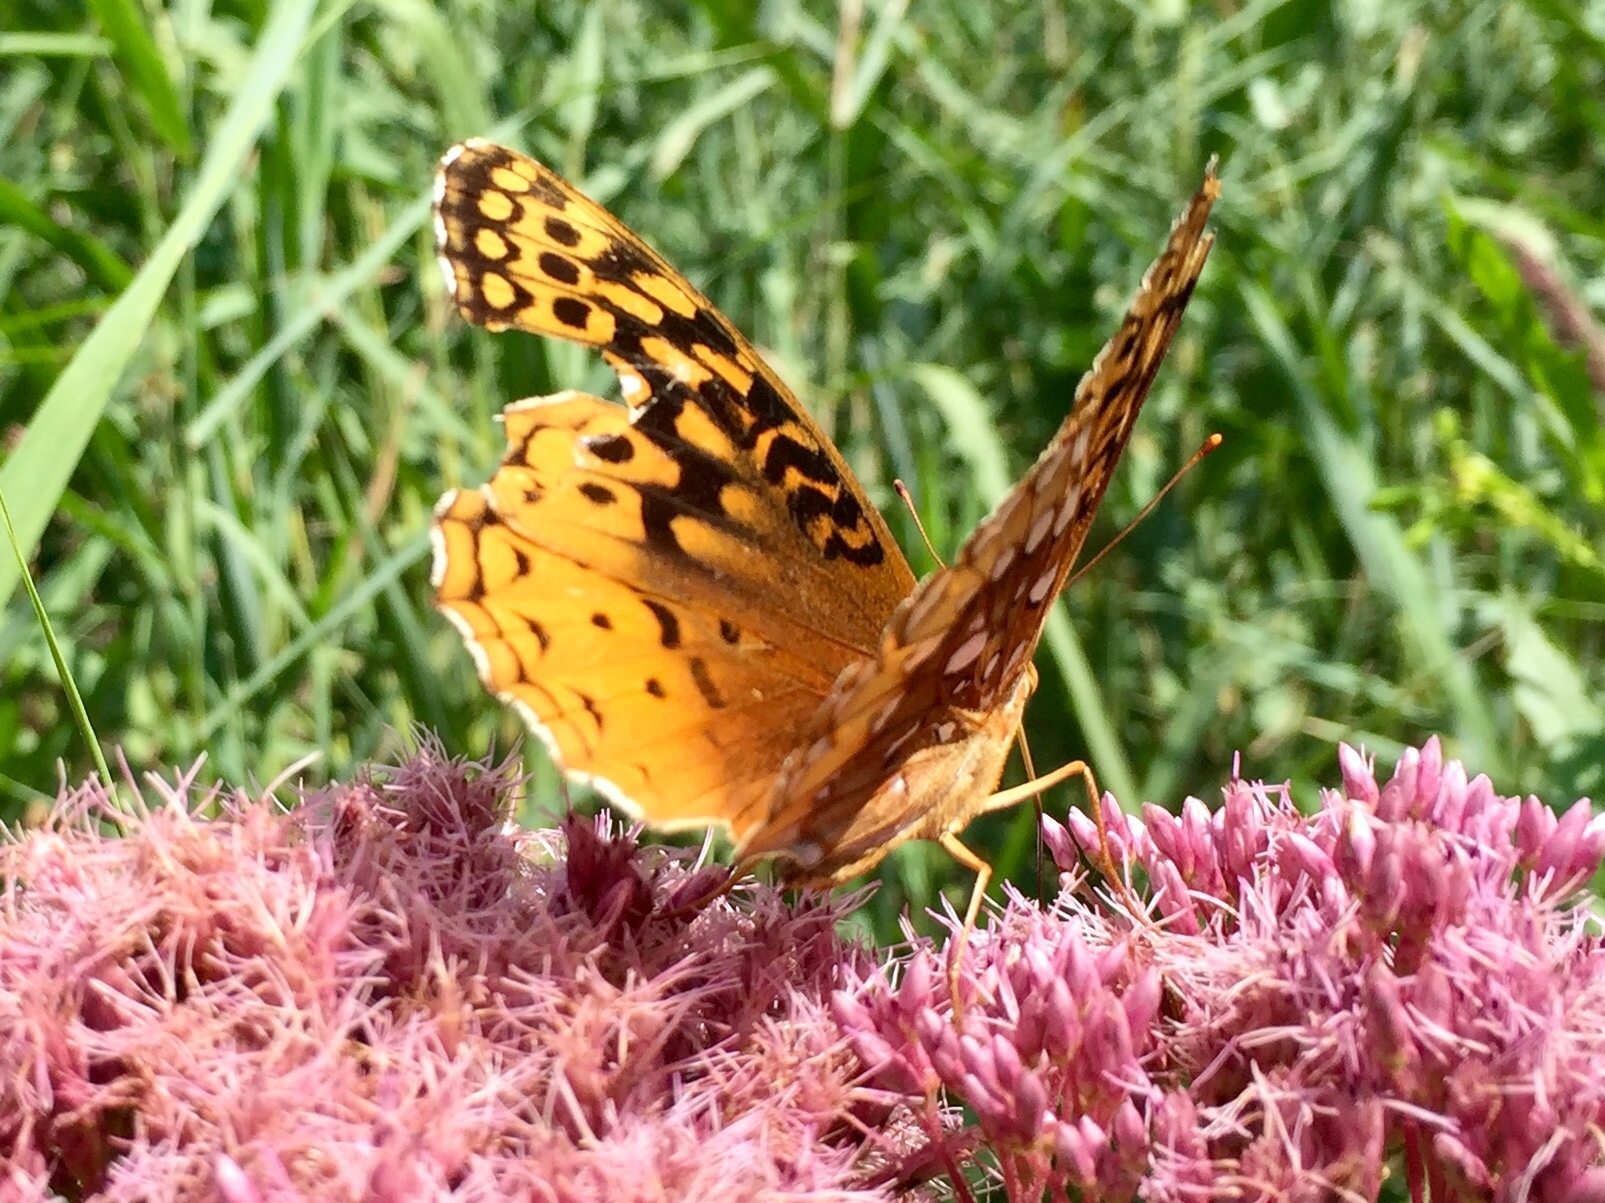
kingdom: Animalia
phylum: Arthropoda
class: Insecta
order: Lepidoptera
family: Nymphalidae
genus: Speyeria
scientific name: Speyeria cybele
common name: Great spangled fritillary
